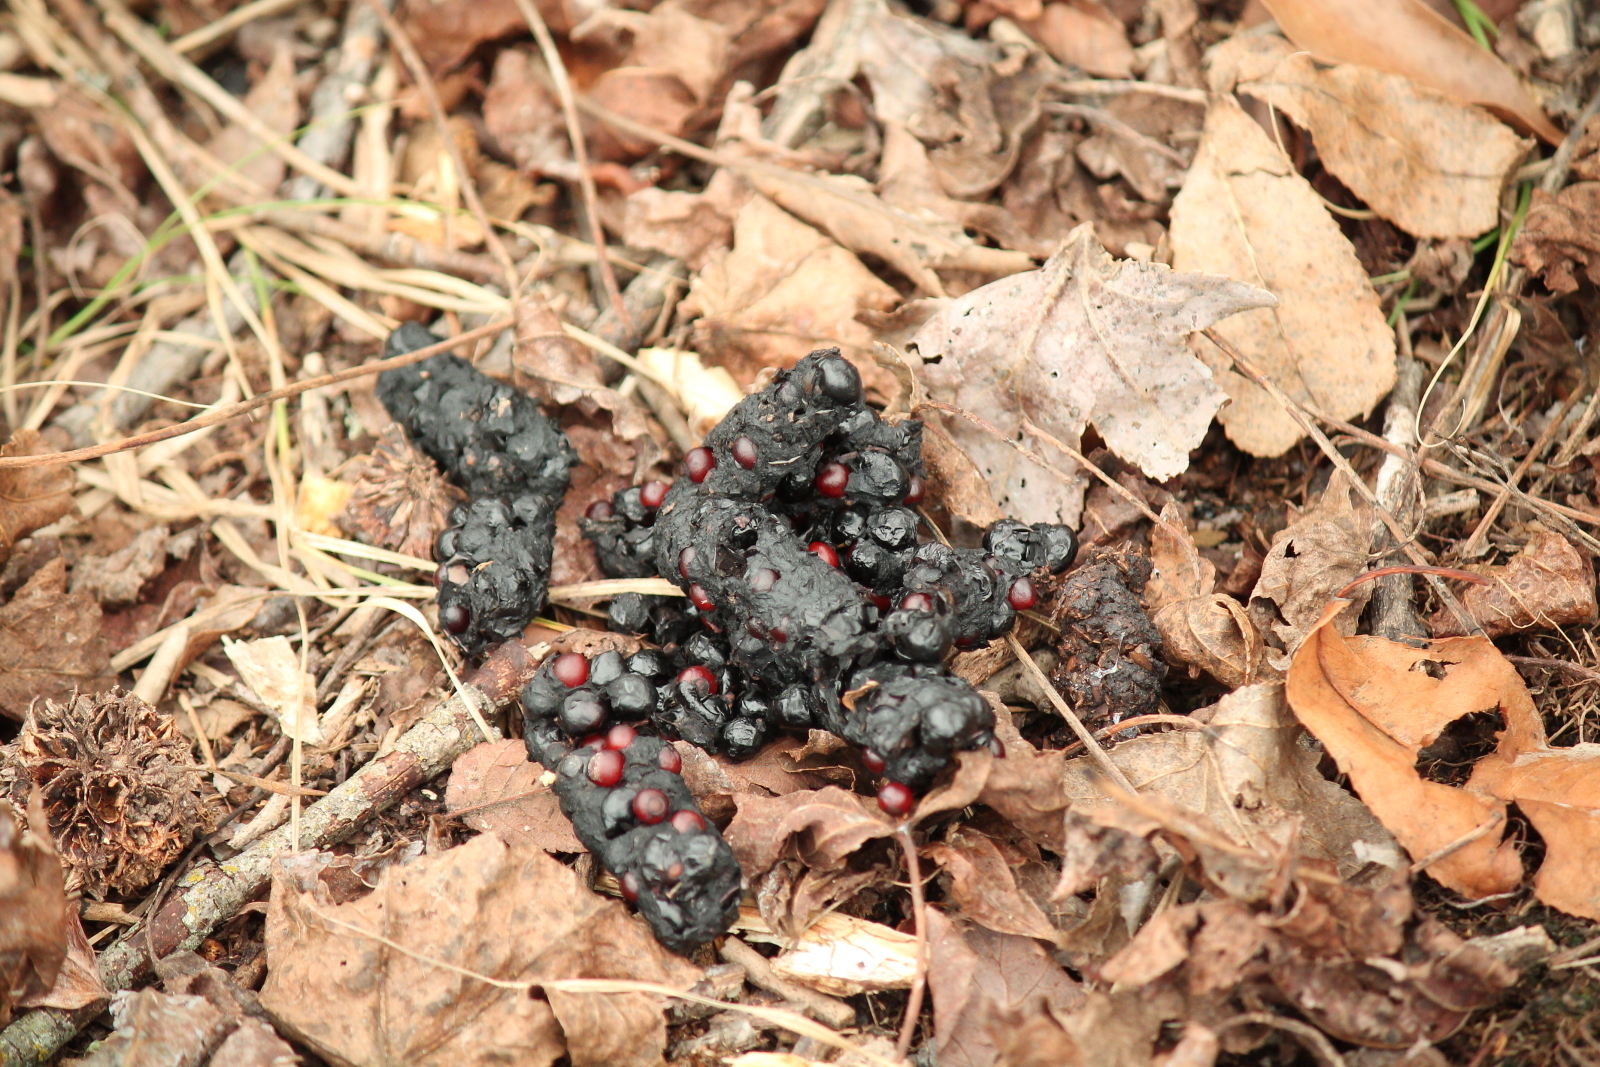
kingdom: Animalia
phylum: Chordata
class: Mammalia
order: Carnivora
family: Procyonidae
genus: Procyon
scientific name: Procyon lotor
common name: Raccoon
